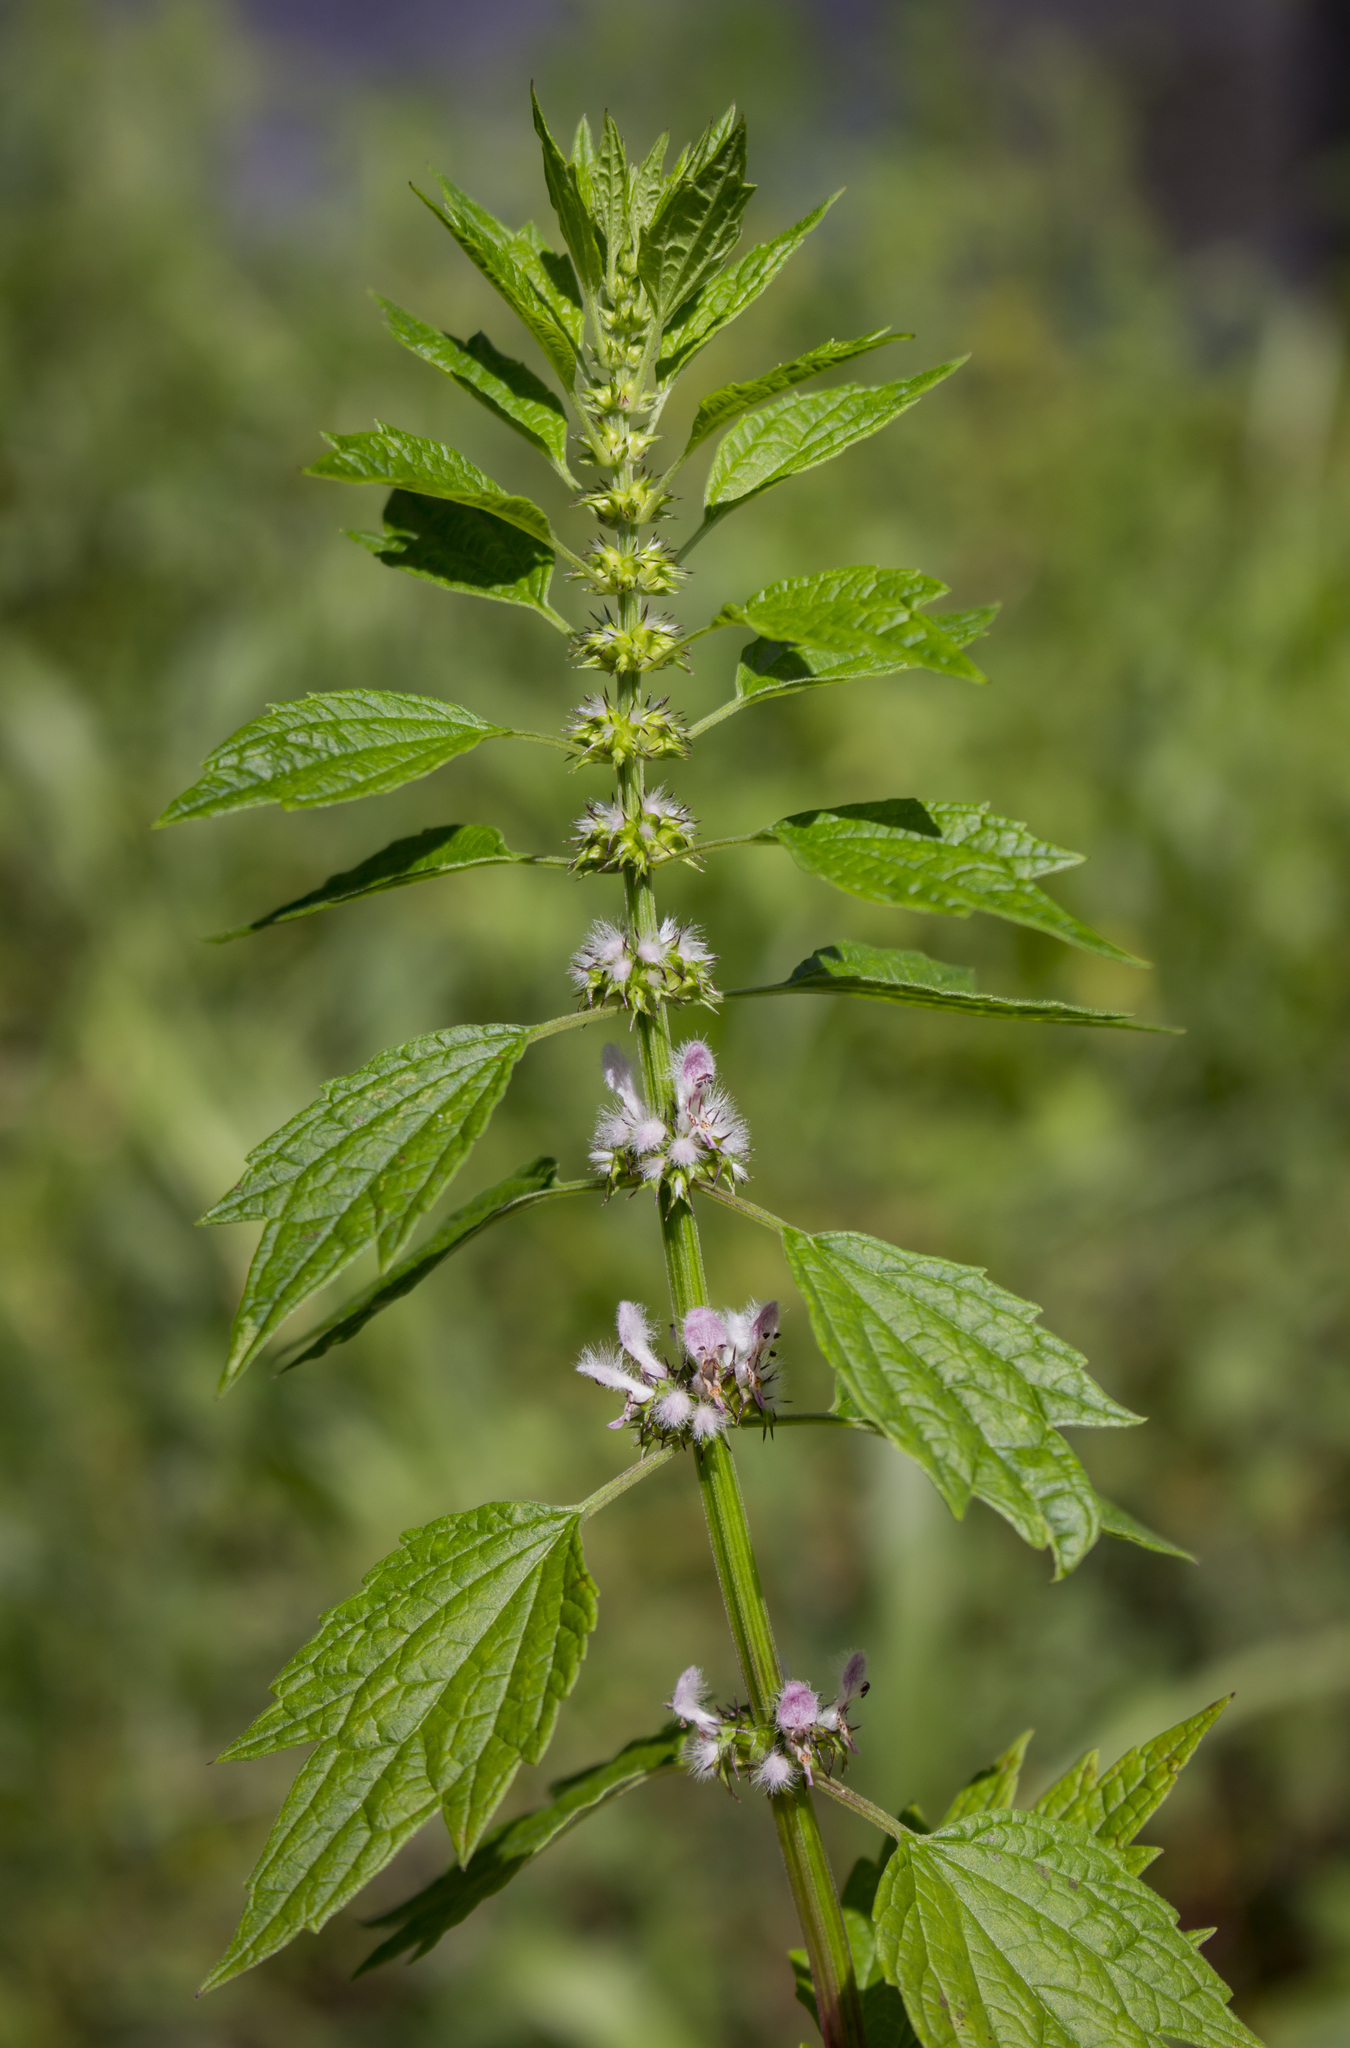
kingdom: Plantae
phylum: Tracheophyta
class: Magnoliopsida
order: Lamiales
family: Lamiaceae
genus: Leonurus
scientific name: Leonurus cardiaca
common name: Motherwort
